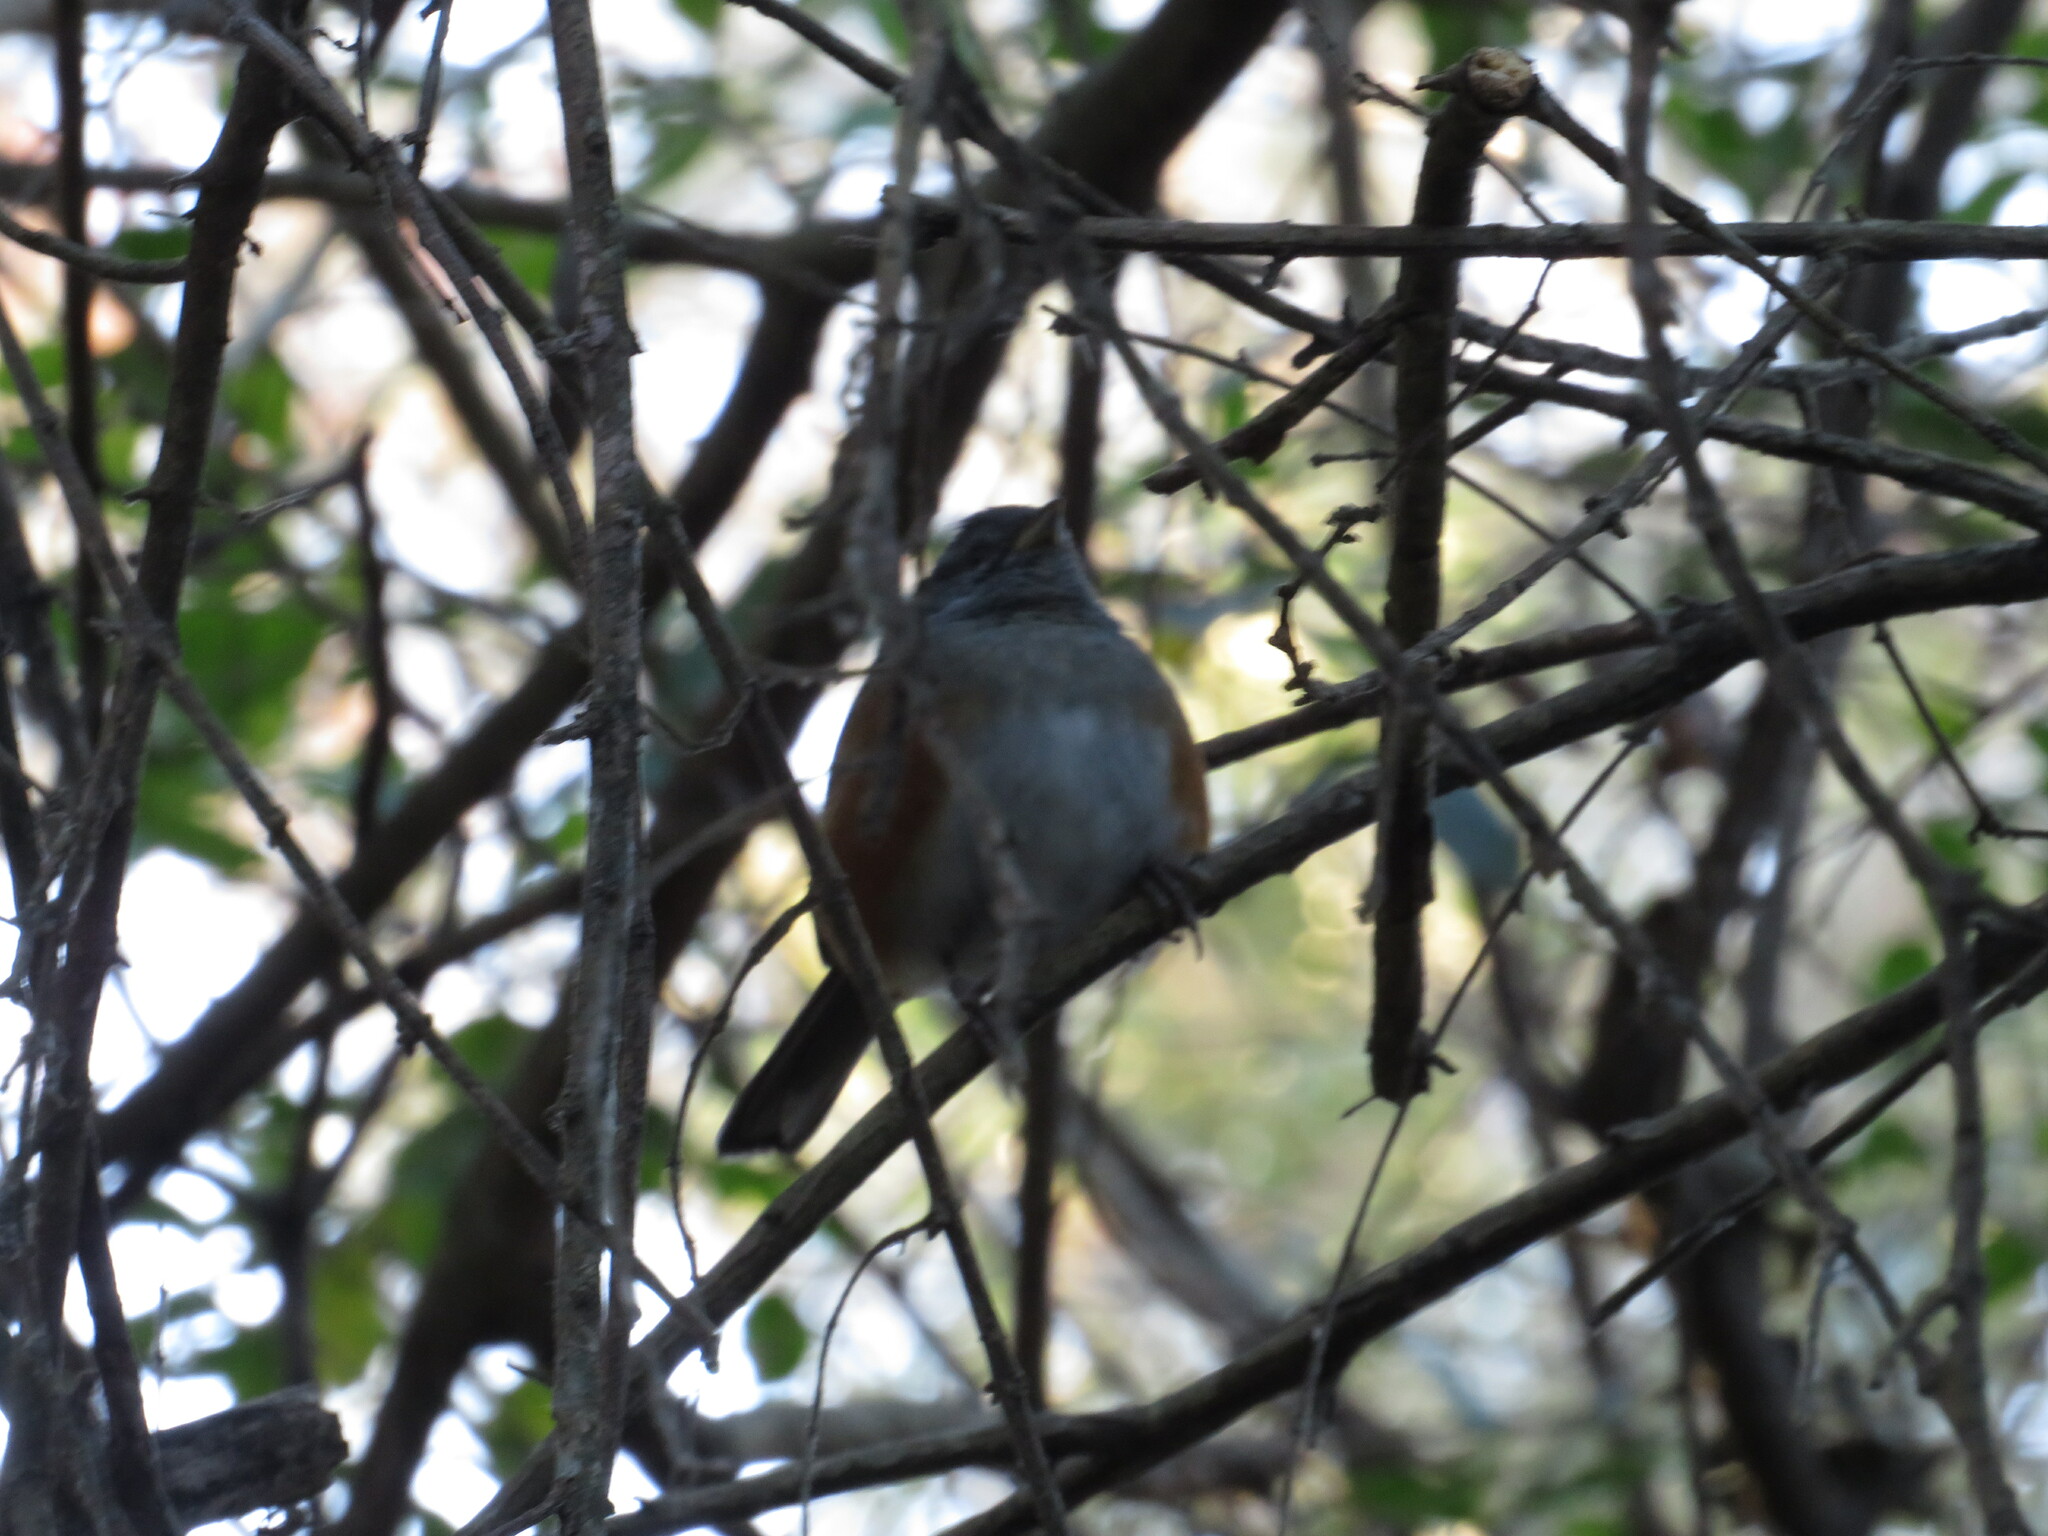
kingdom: Animalia
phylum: Chordata
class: Aves
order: Passeriformes
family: Thraupidae
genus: Microspingus
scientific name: Microspingus cabanisi
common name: Gray-throated warbling-finch
